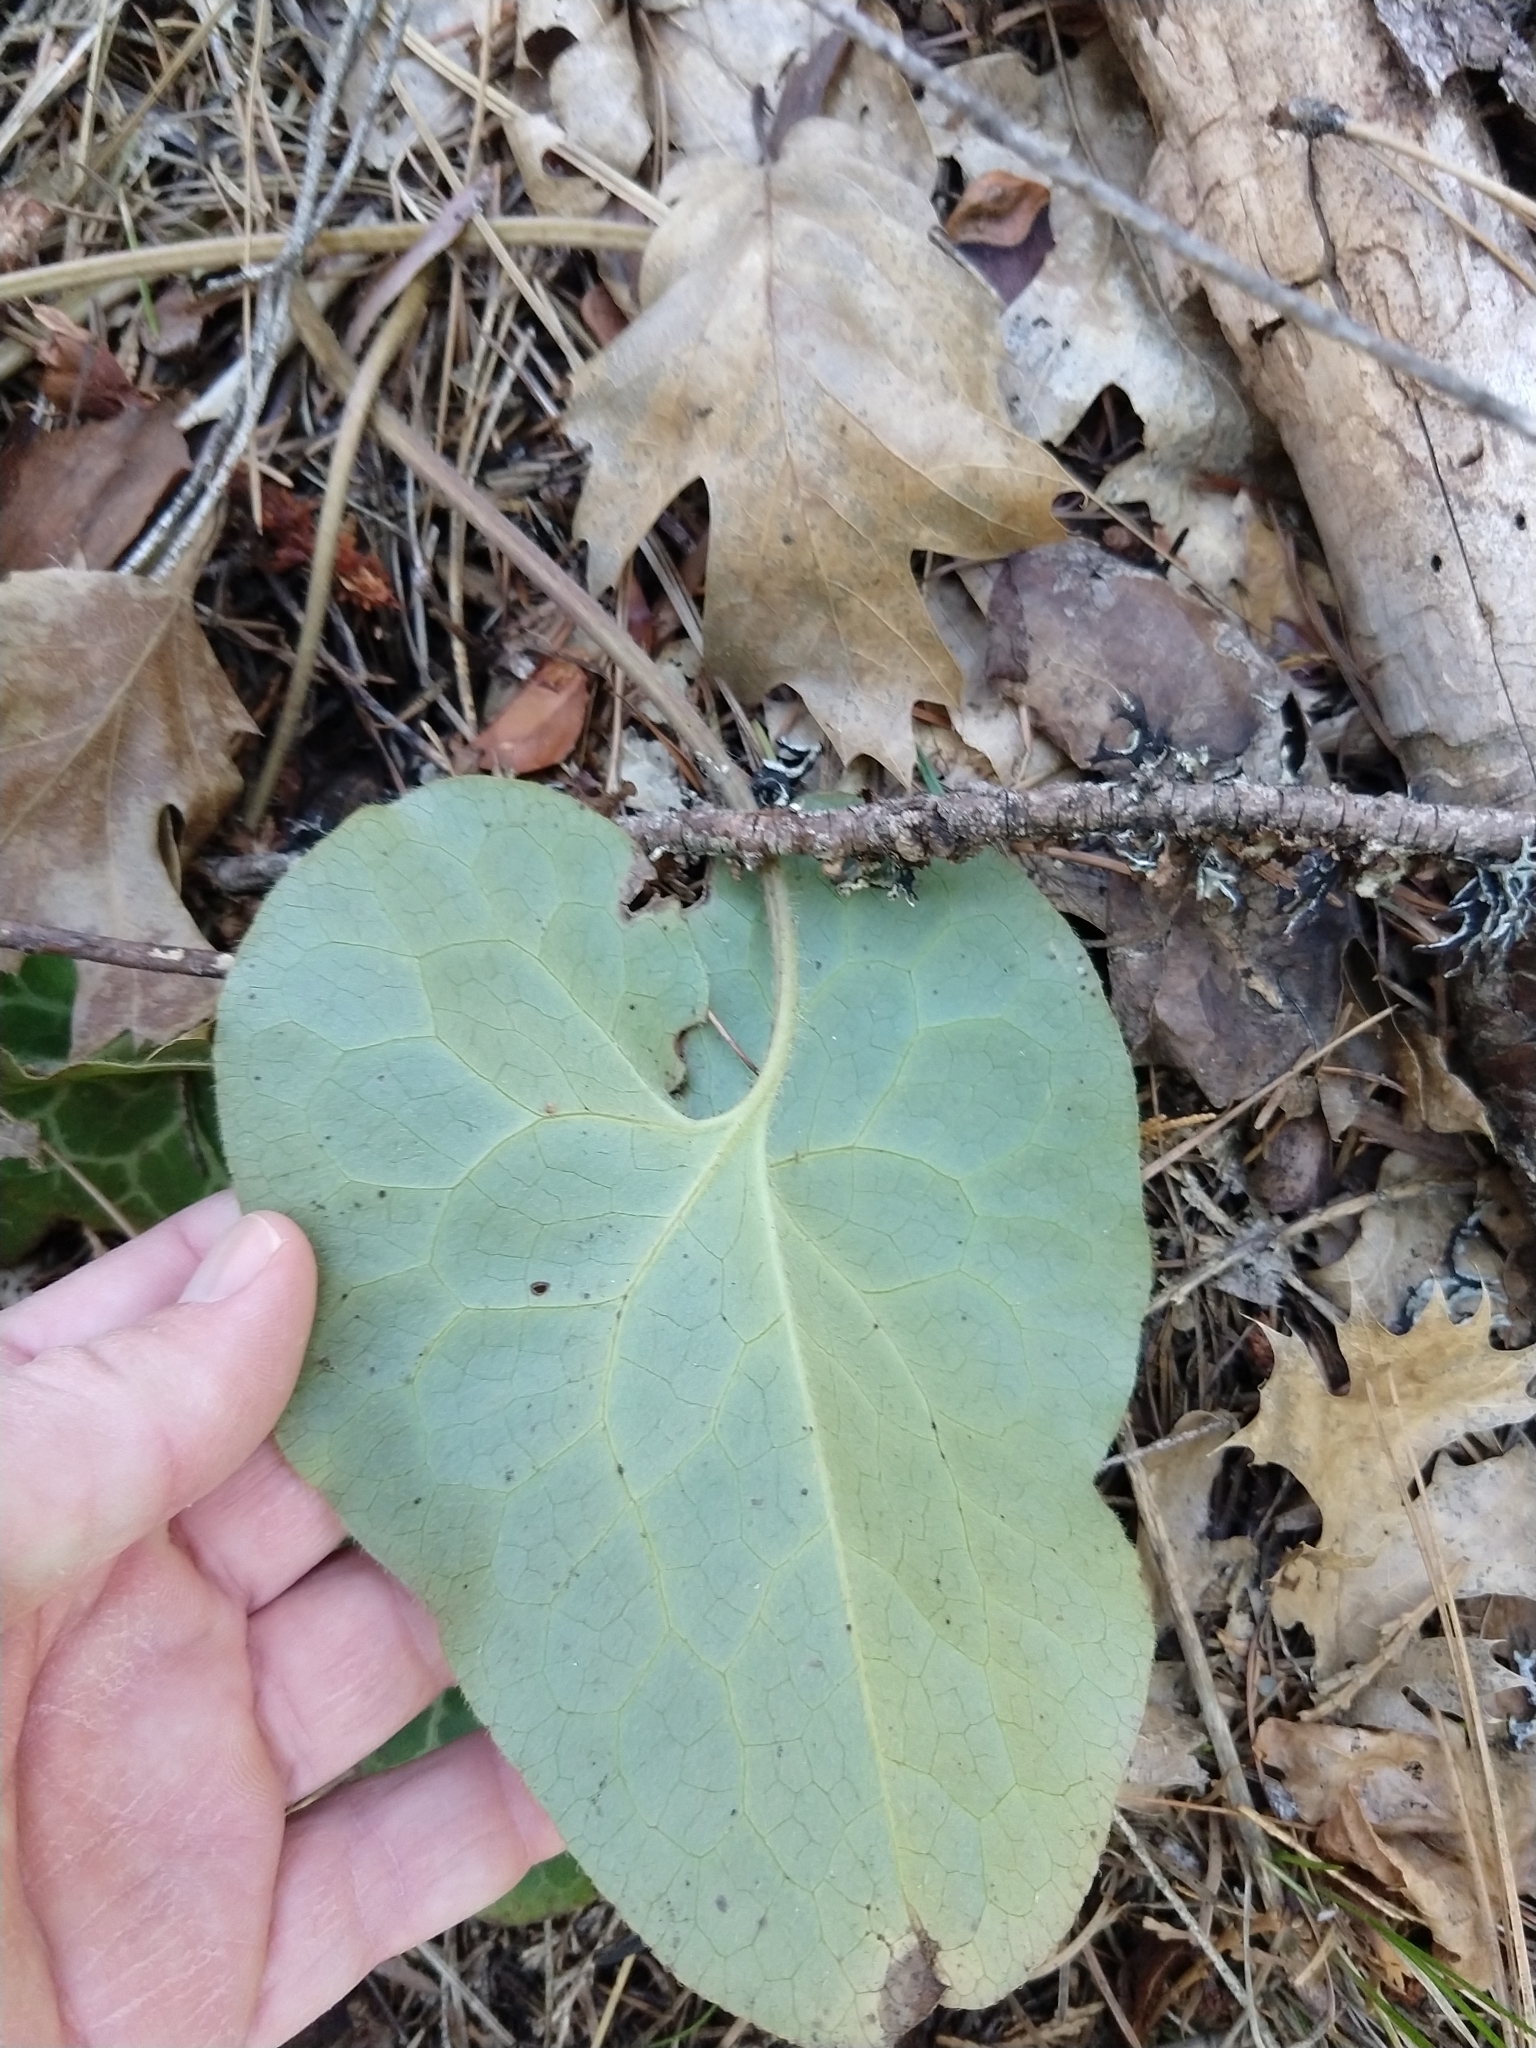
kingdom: Plantae
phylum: Tracheophyta
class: Magnoliopsida
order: Piperales
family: Aristolochiaceae
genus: Asarum
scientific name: Asarum hartwegii
